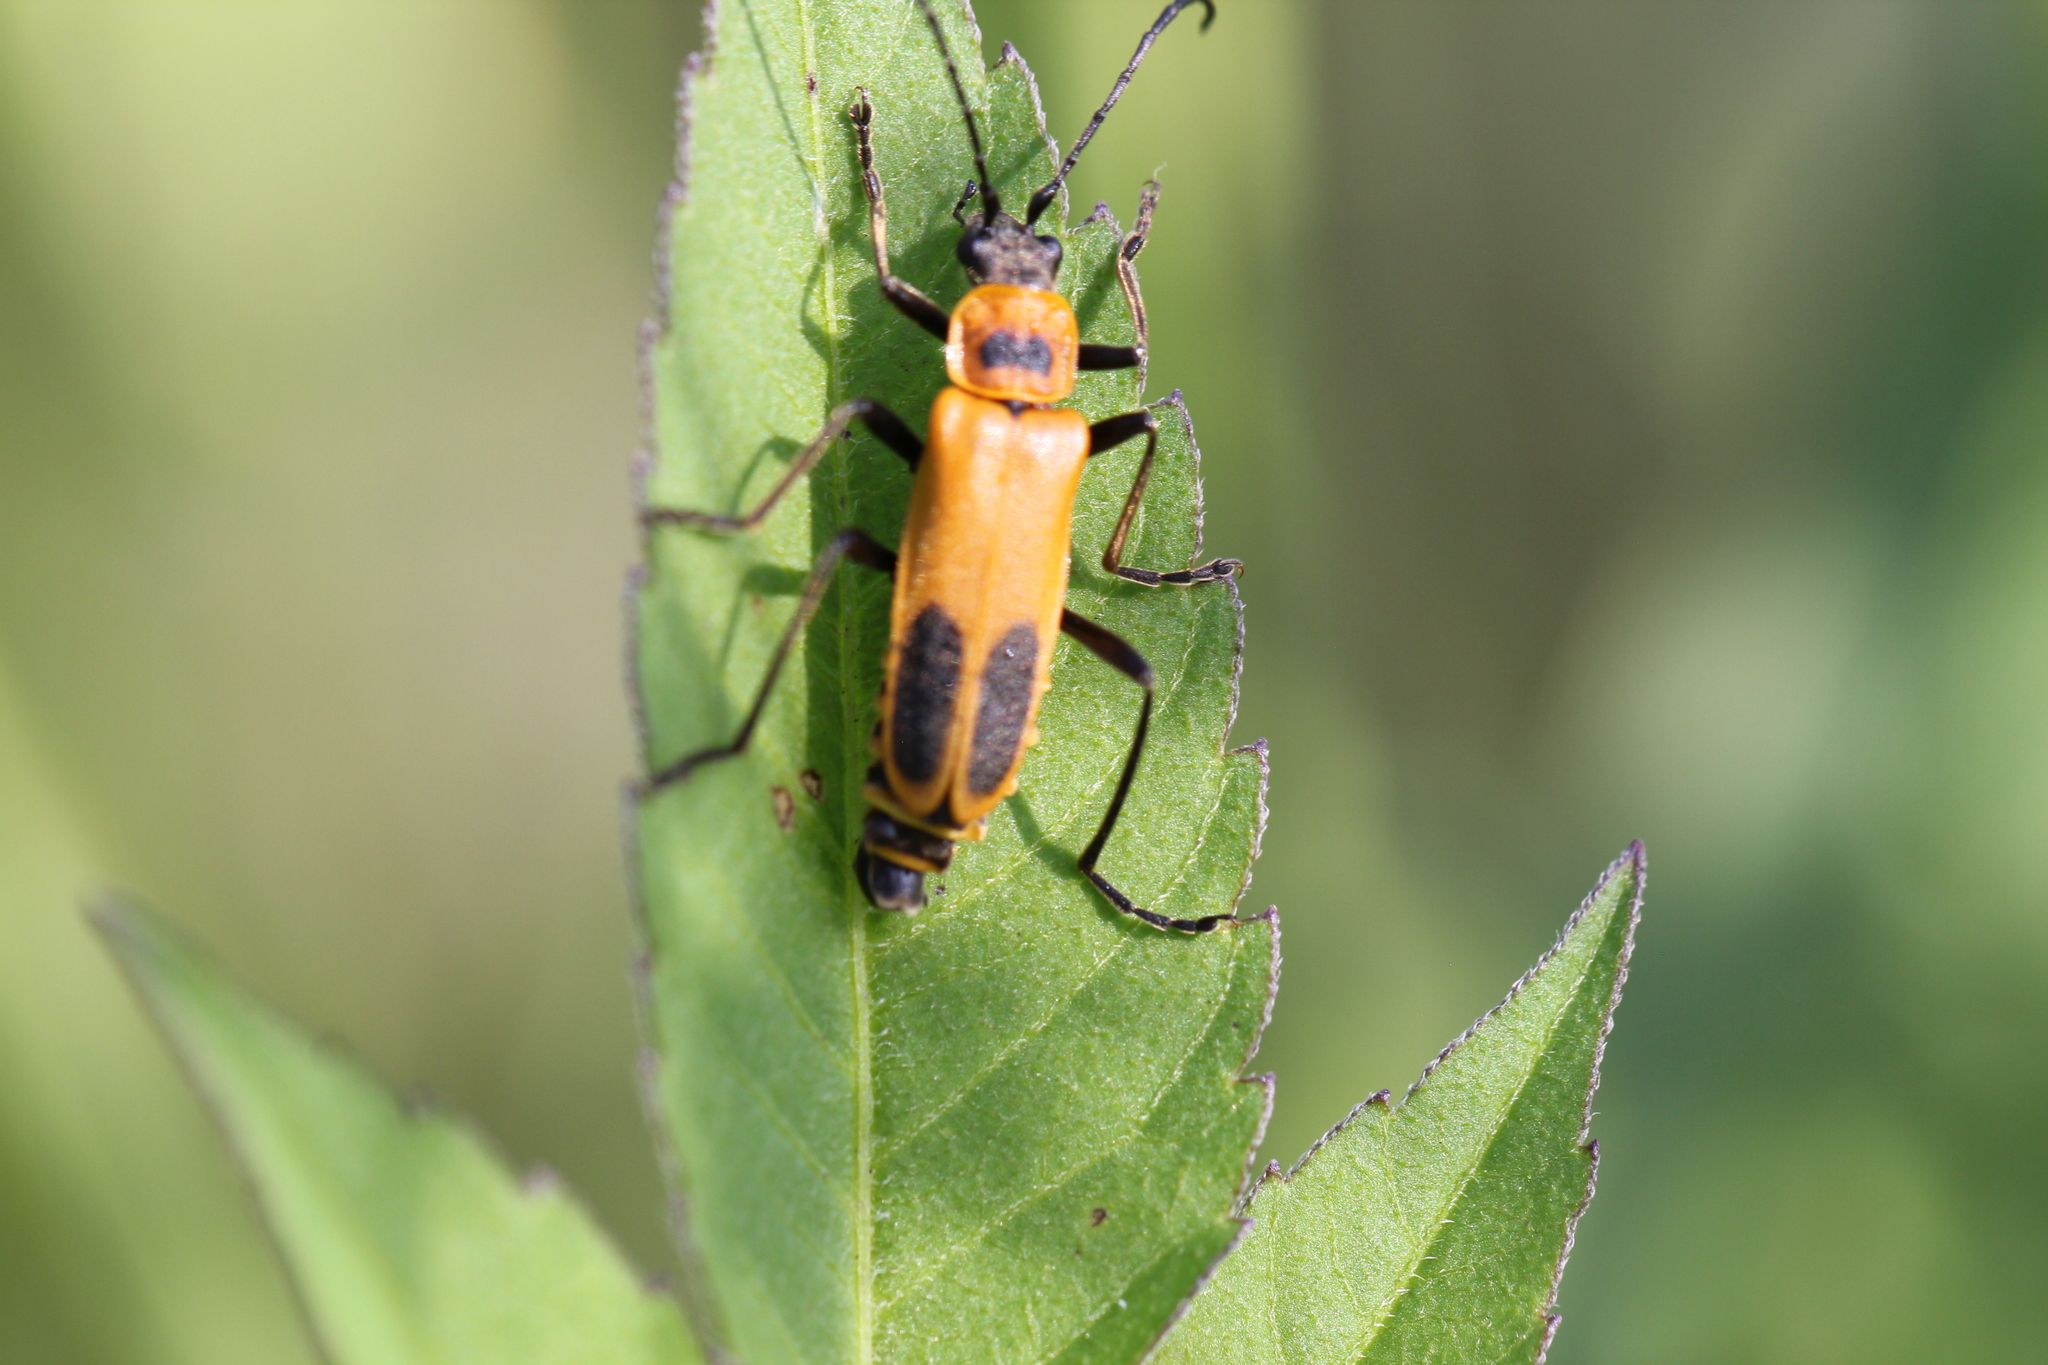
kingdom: Animalia
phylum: Arthropoda
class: Insecta
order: Coleoptera
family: Cantharidae
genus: Chauliognathus
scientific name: Chauliognathus pensylvanicus
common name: Goldenrod soldier beetle
